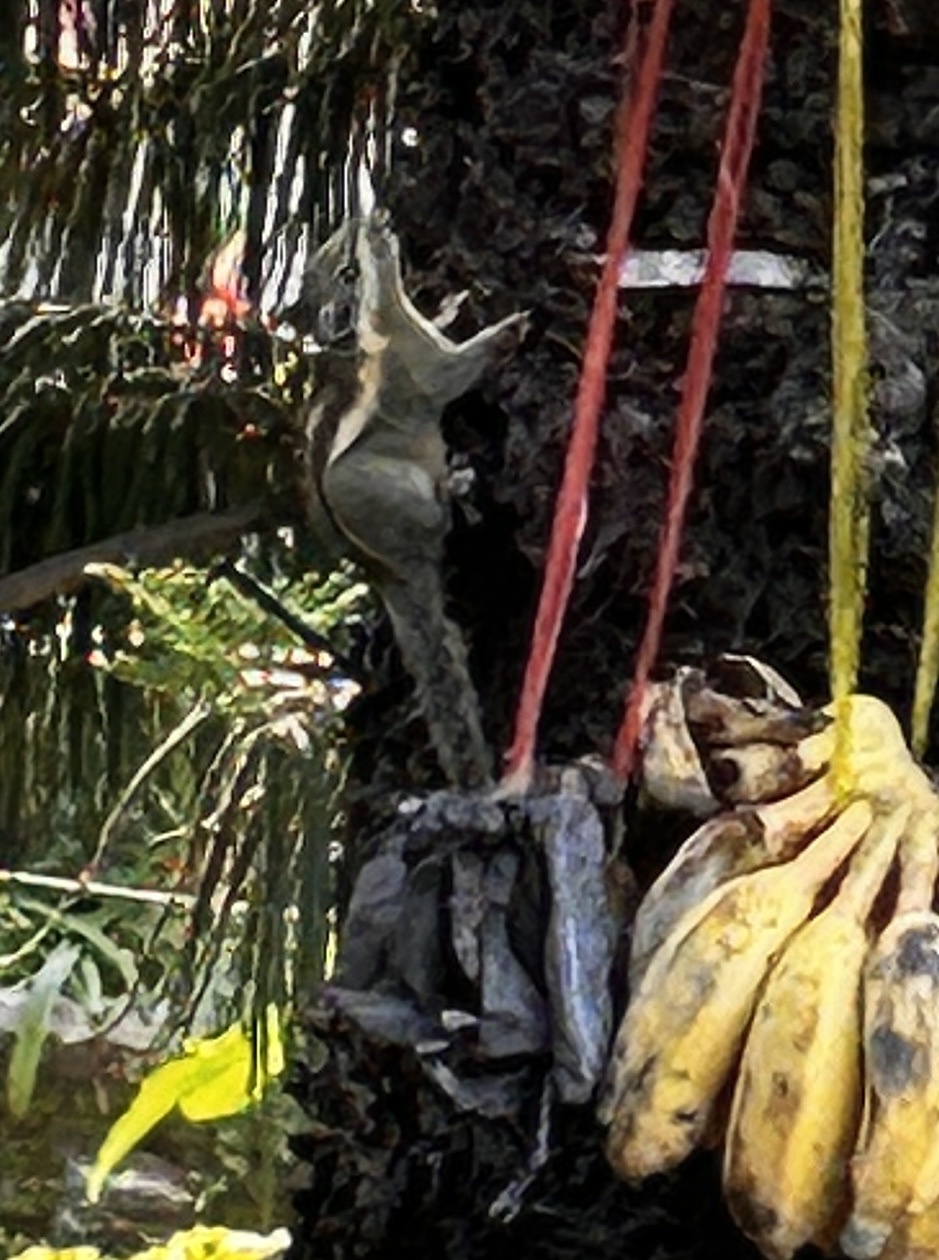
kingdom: Animalia
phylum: Chordata
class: Mammalia
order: Rodentia
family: Sciuridae
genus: Tamiops
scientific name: Tamiops mcclellandii
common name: Himalayan striped squirrel
